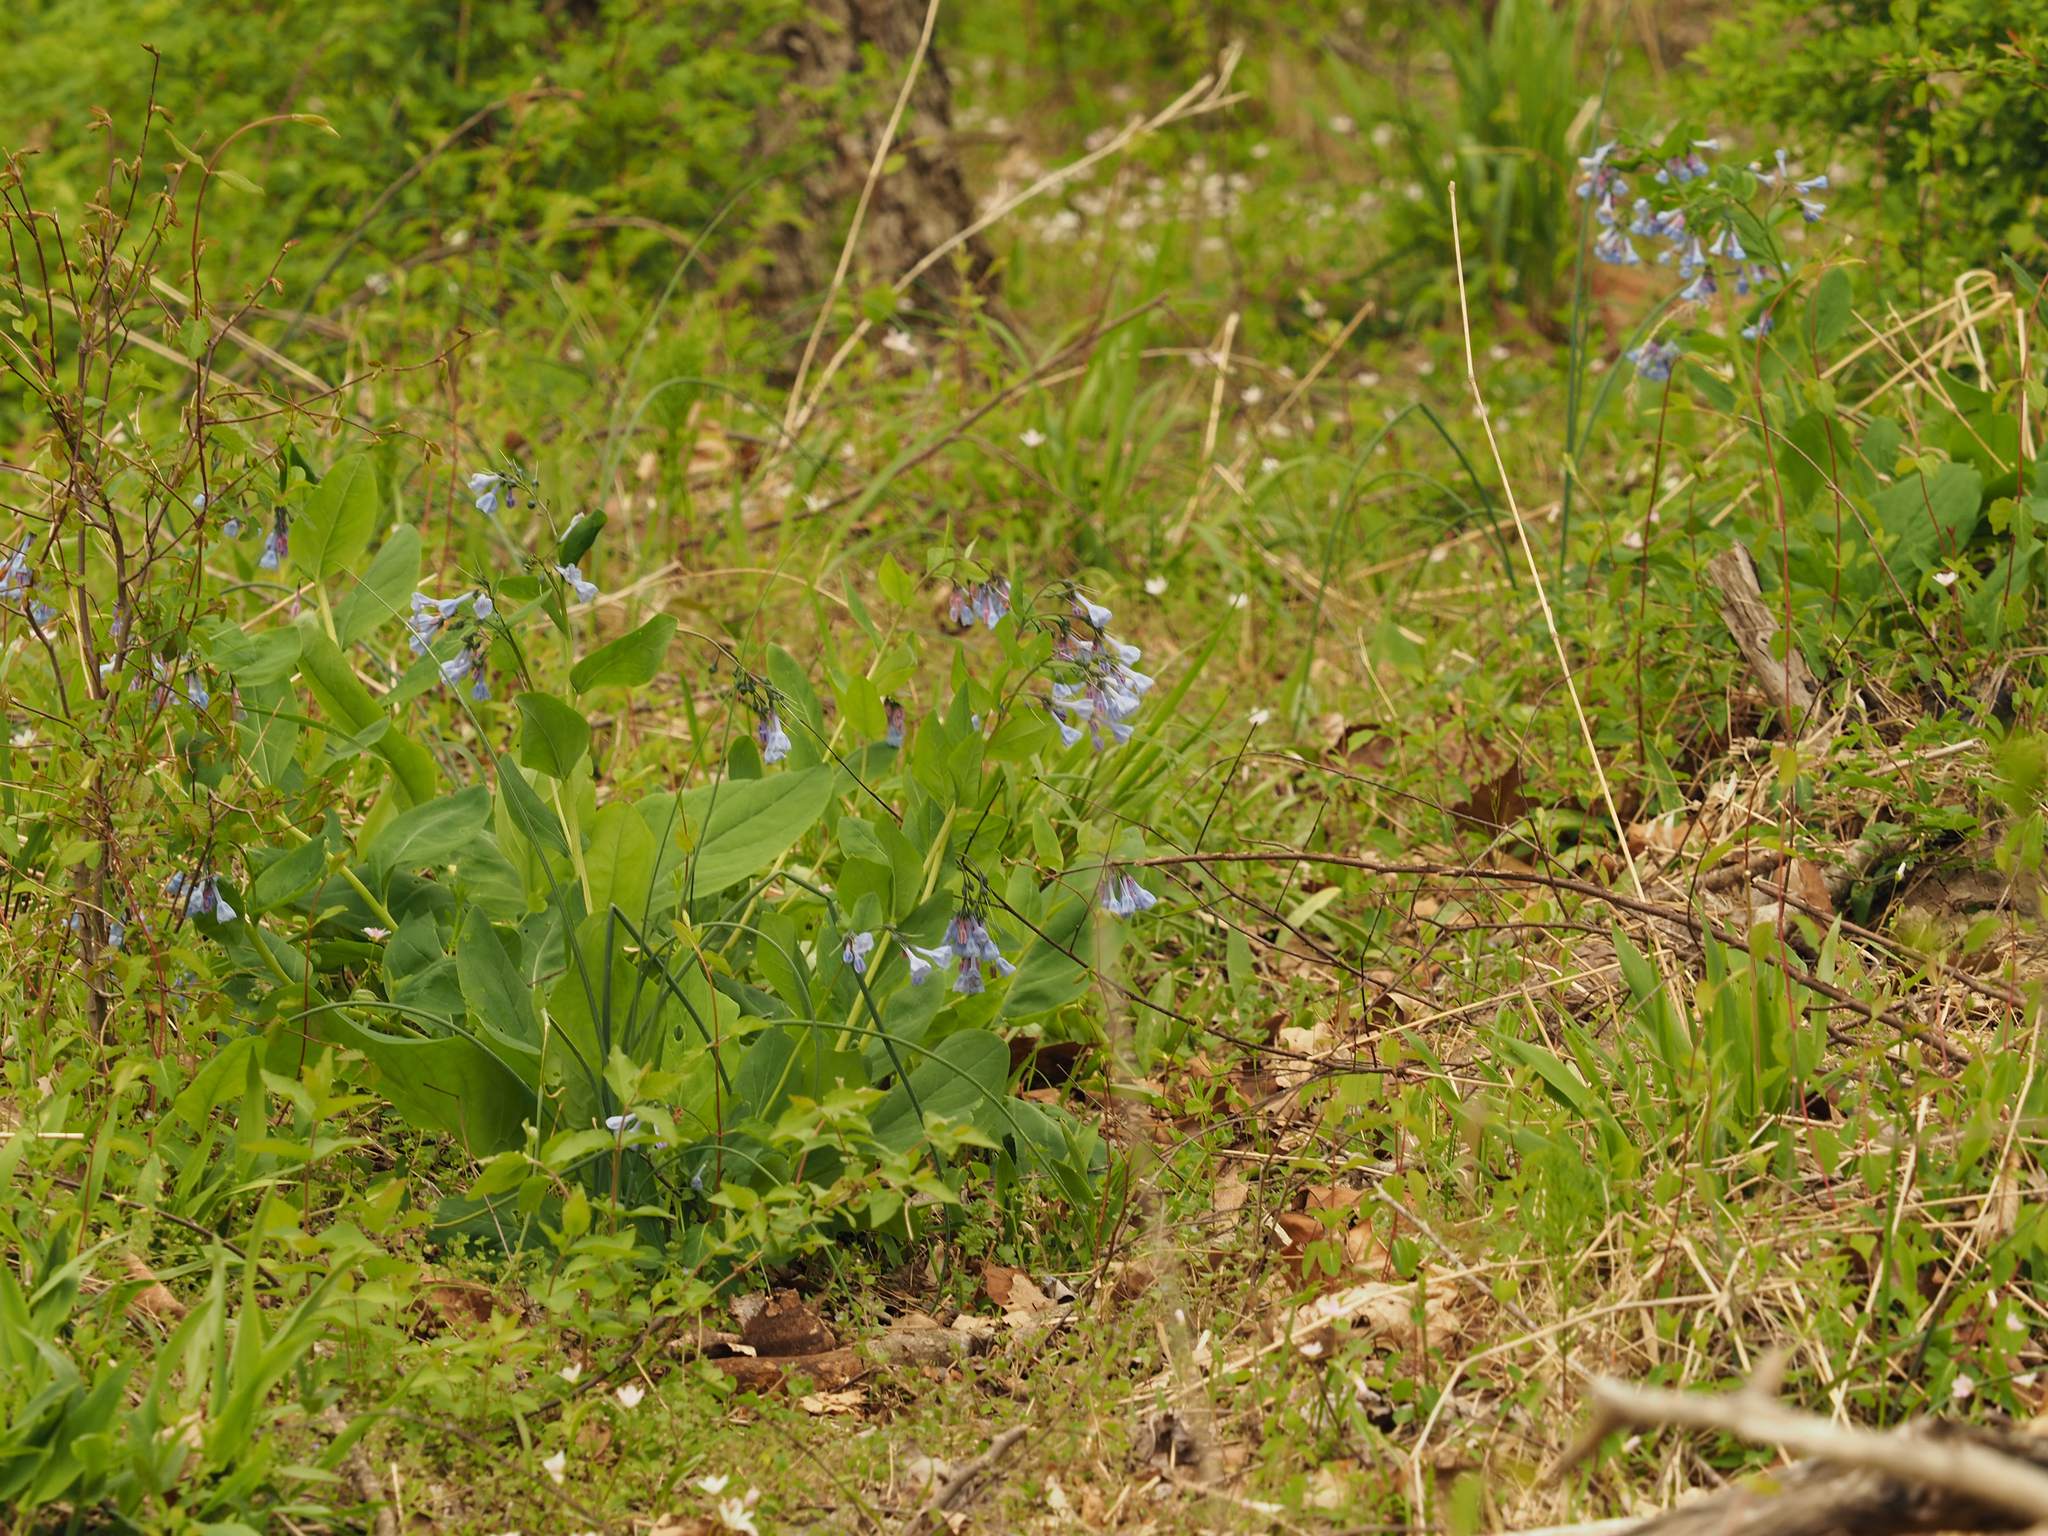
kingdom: Plantae
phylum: Tracheophyta
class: Magnoliopsida
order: Boraginales
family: Boraginaceae
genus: Mertensia
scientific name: Mertensia virginica
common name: Virginia bluebells
